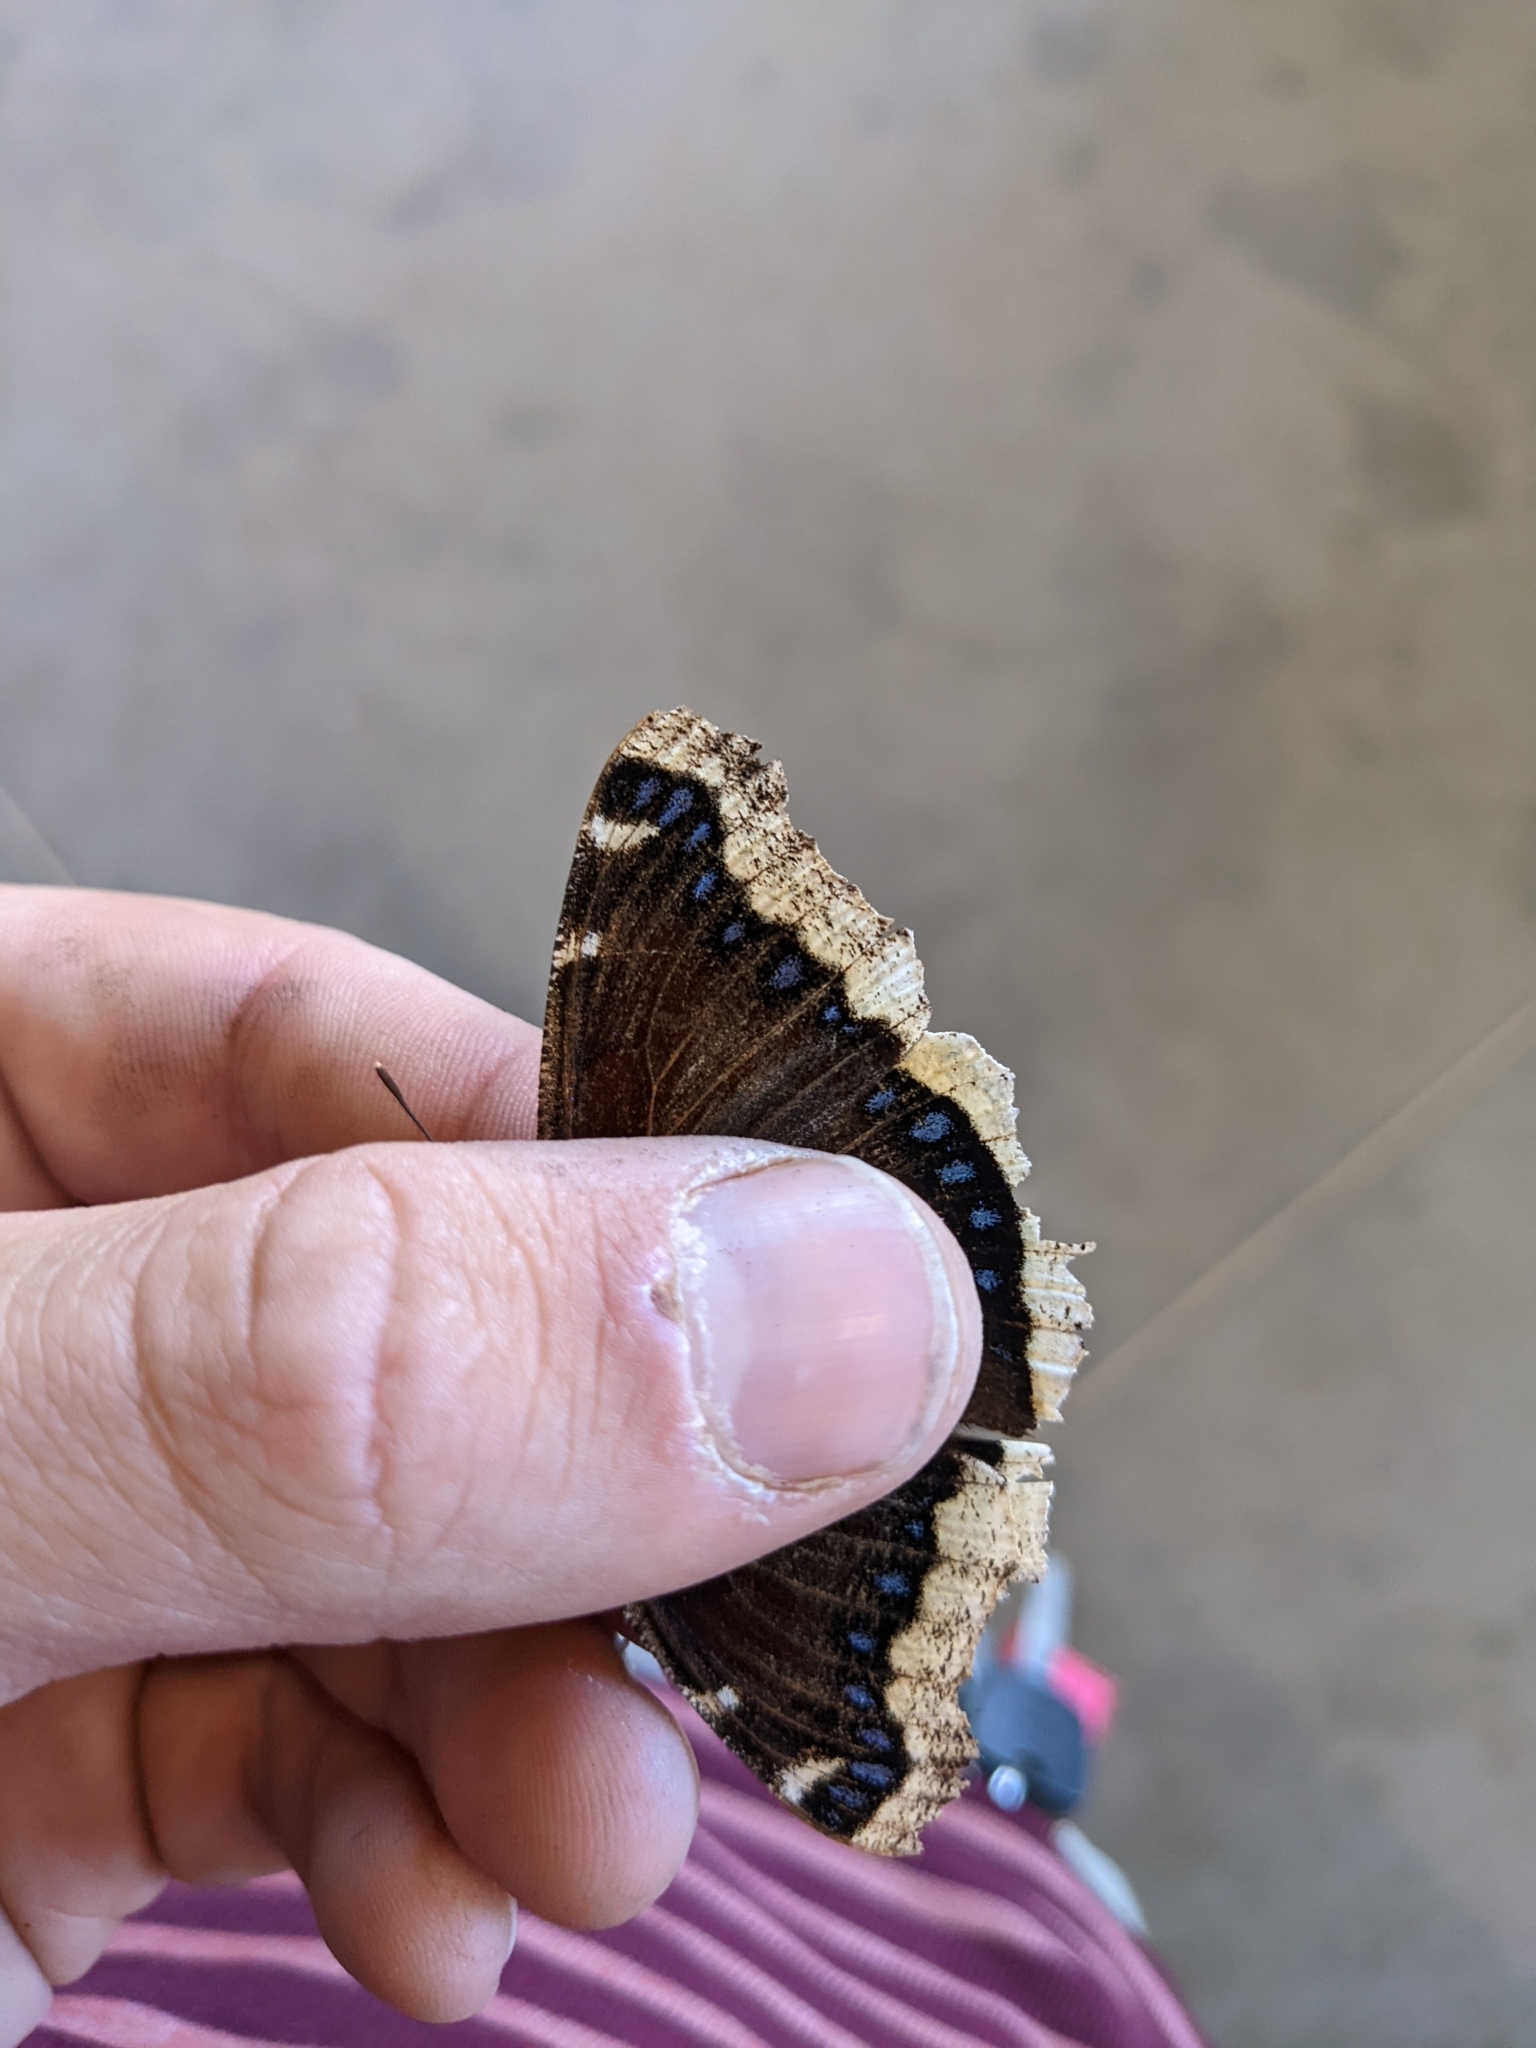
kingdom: Animalia
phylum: Arthropoda
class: Insecta
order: Lepidoptera
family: Nymphalidae
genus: Nymphalis
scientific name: Nymphalis antiopa
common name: Camberwell beauty
